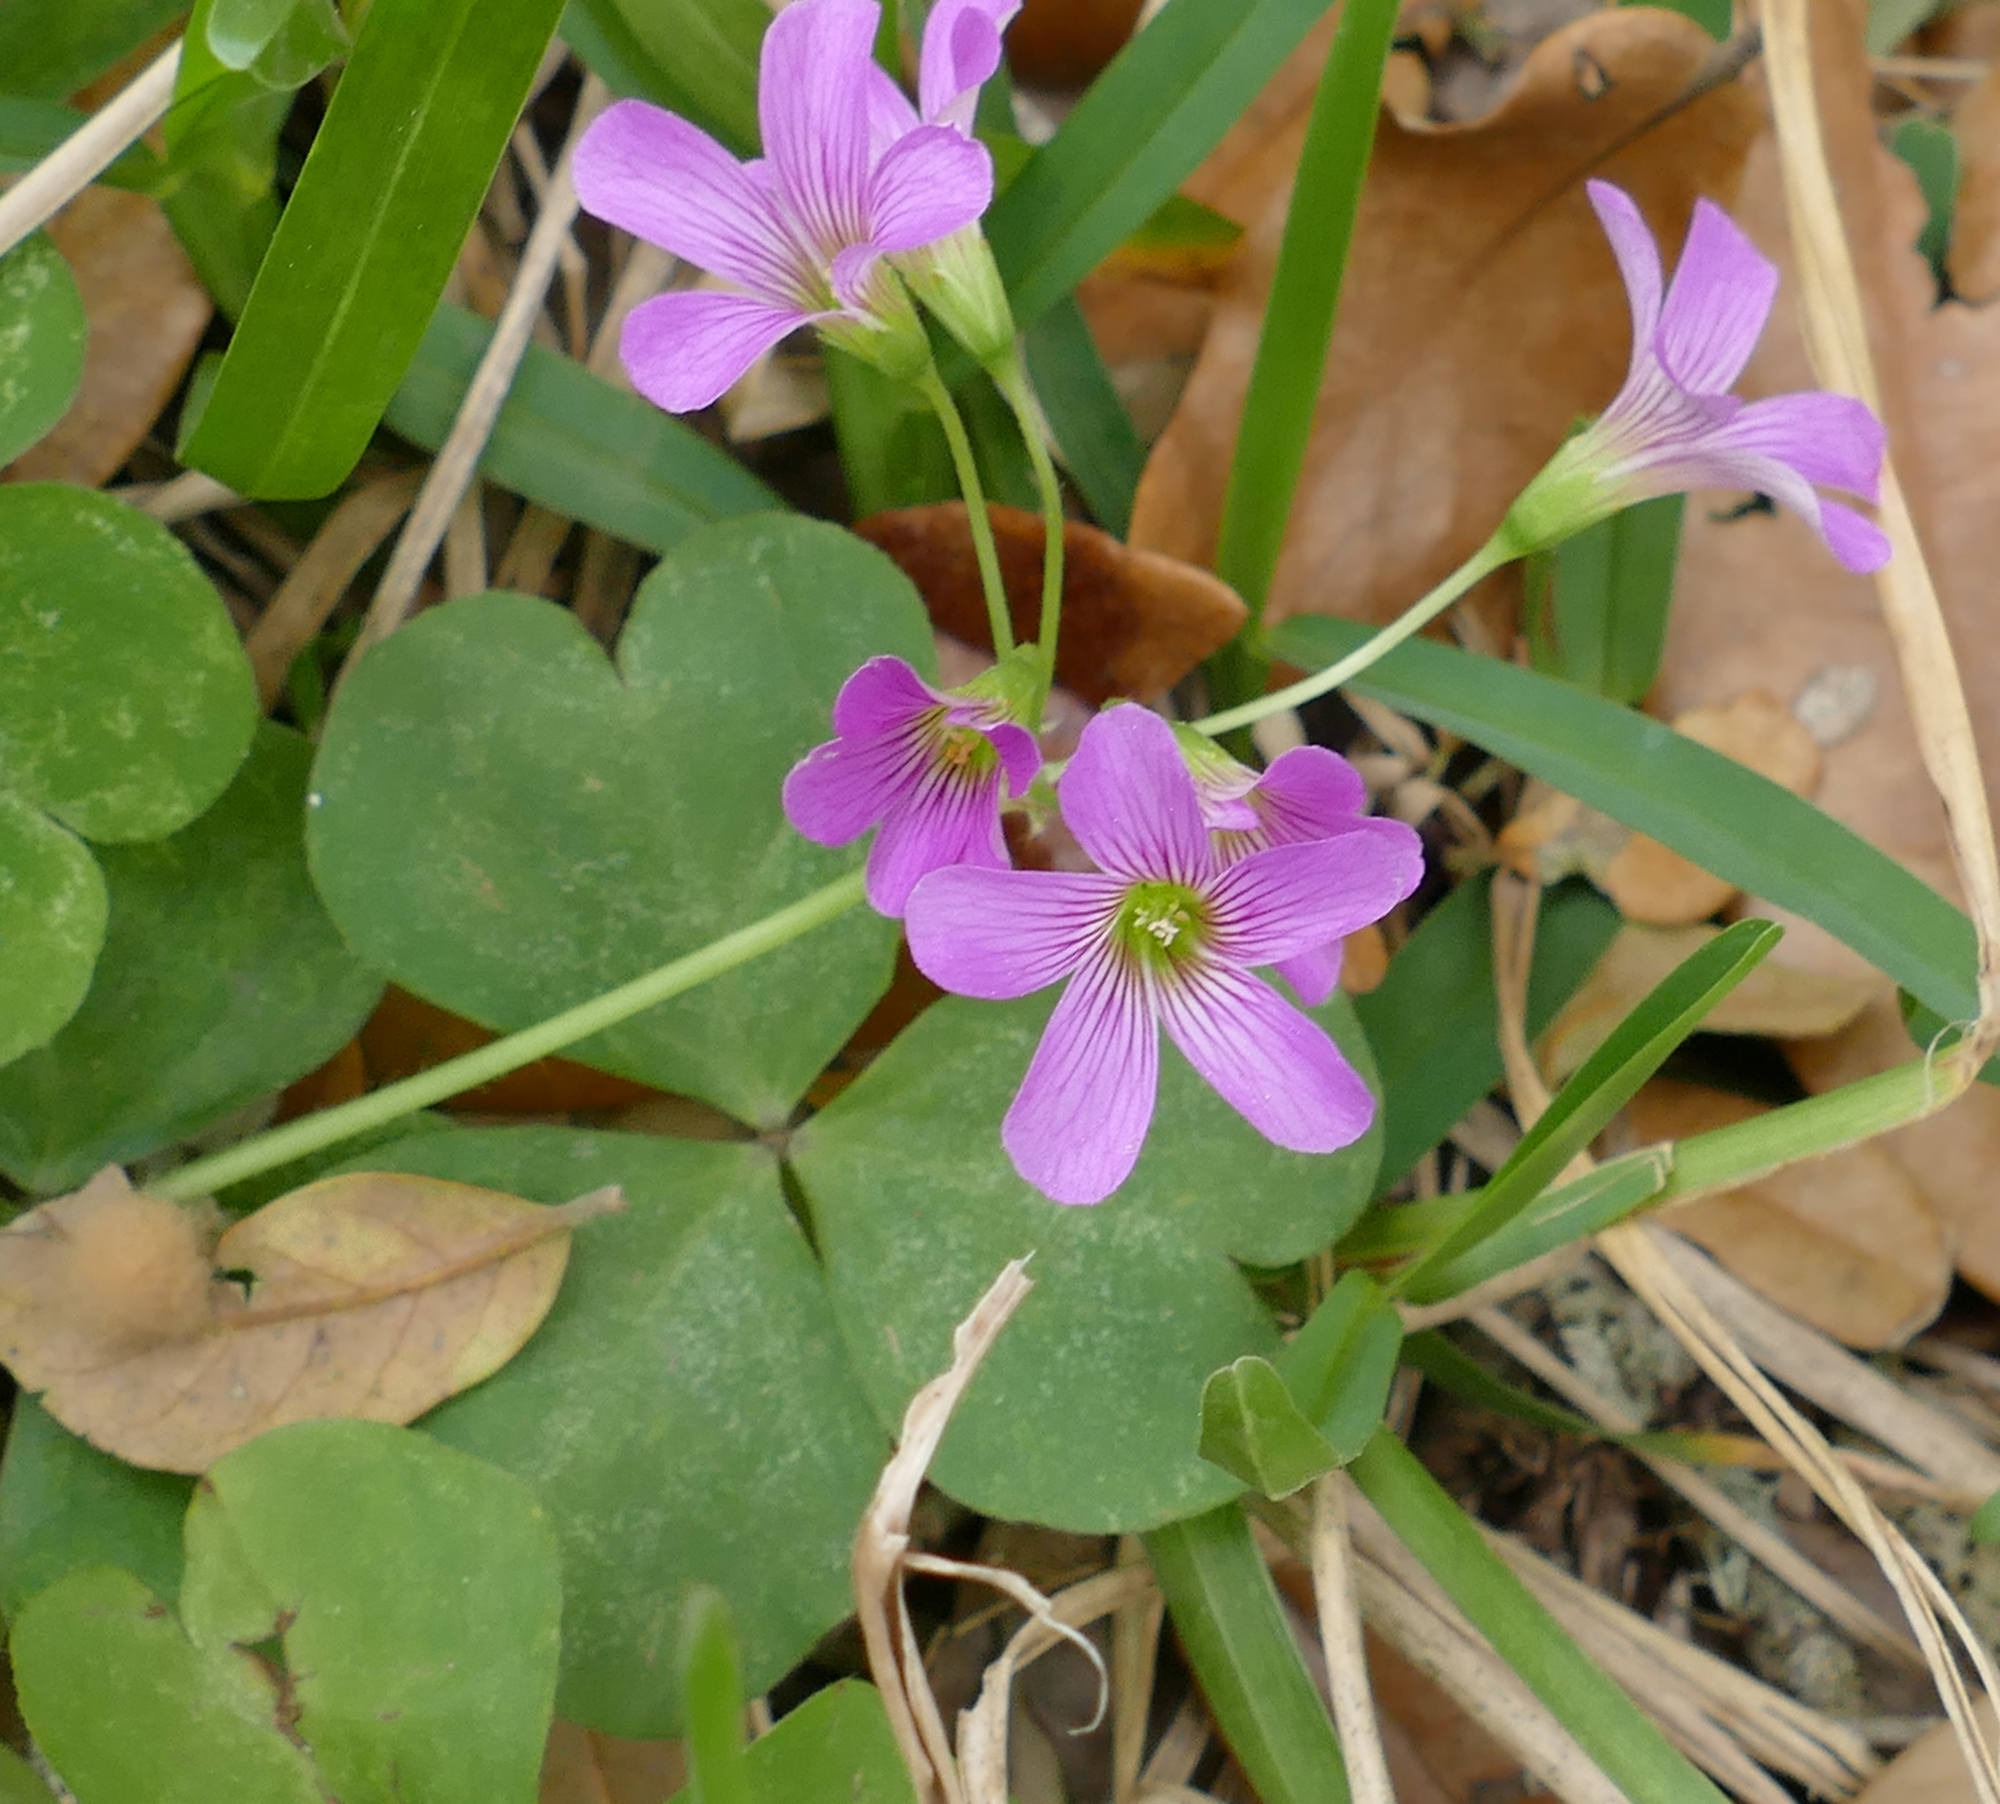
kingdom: Plantae
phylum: Tracheophyta
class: Magnoliopsida
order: Oxalidales
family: Oxalidaceae
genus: Oxalis
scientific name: Oxalis debilis
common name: Large-flowered pink-sorrel
